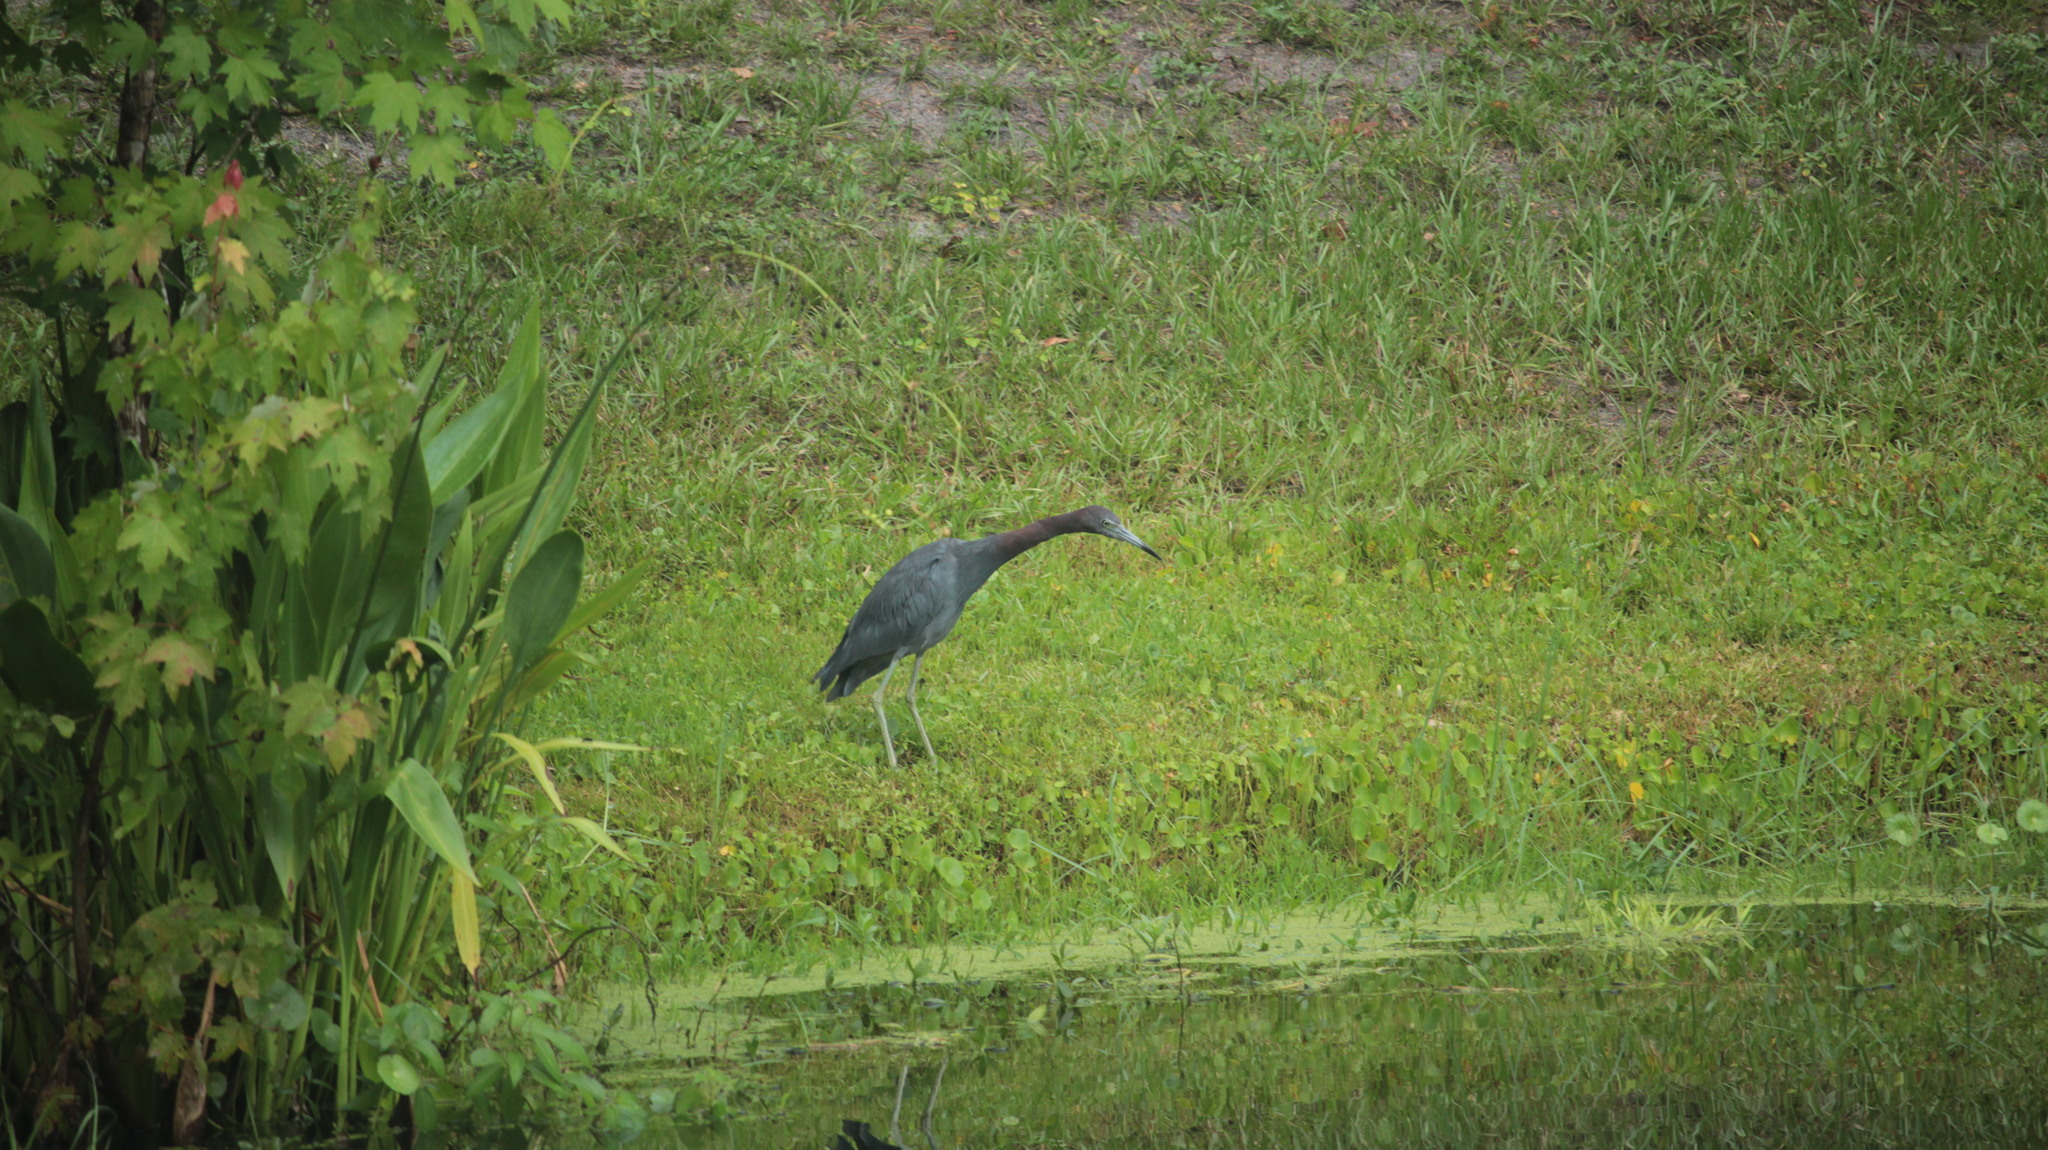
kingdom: Animalia
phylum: Chordata
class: Aves
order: Pelecaniformes
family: Ardeidae
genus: Egretta
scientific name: Egretta caerulea
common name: Little blue heron
